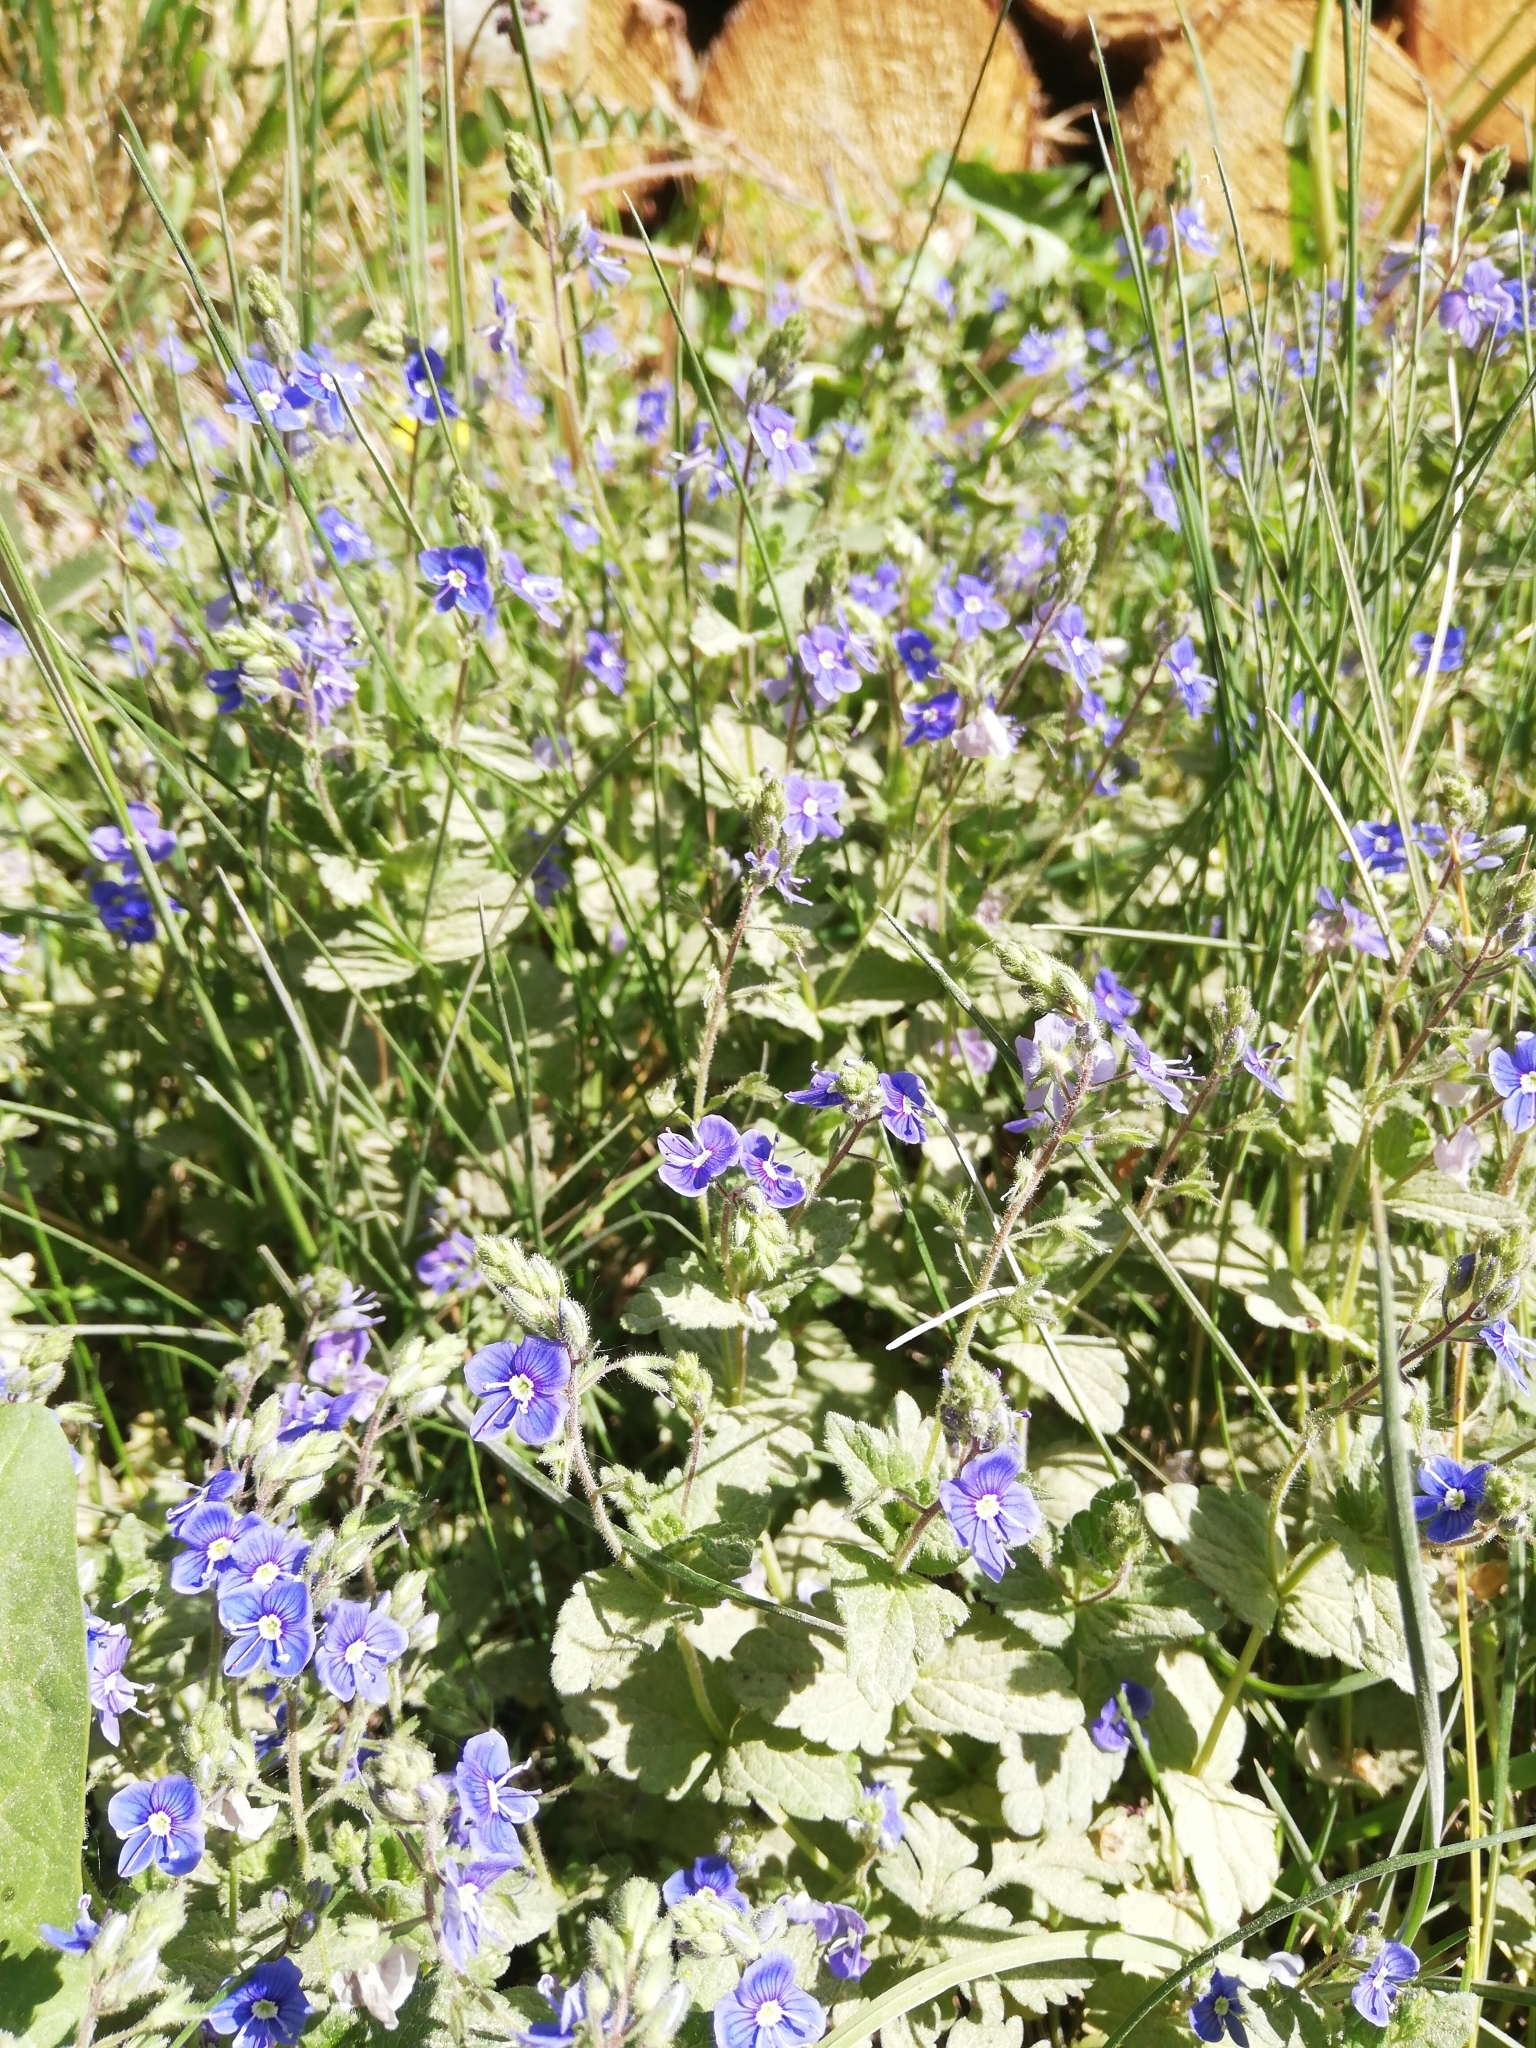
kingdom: Plantae
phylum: Tracheophyta
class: Magnoliopsida
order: Lamiales
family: Plantaginaceae
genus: Veronica
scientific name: Veronica chamaedrys
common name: Germander speedwell
